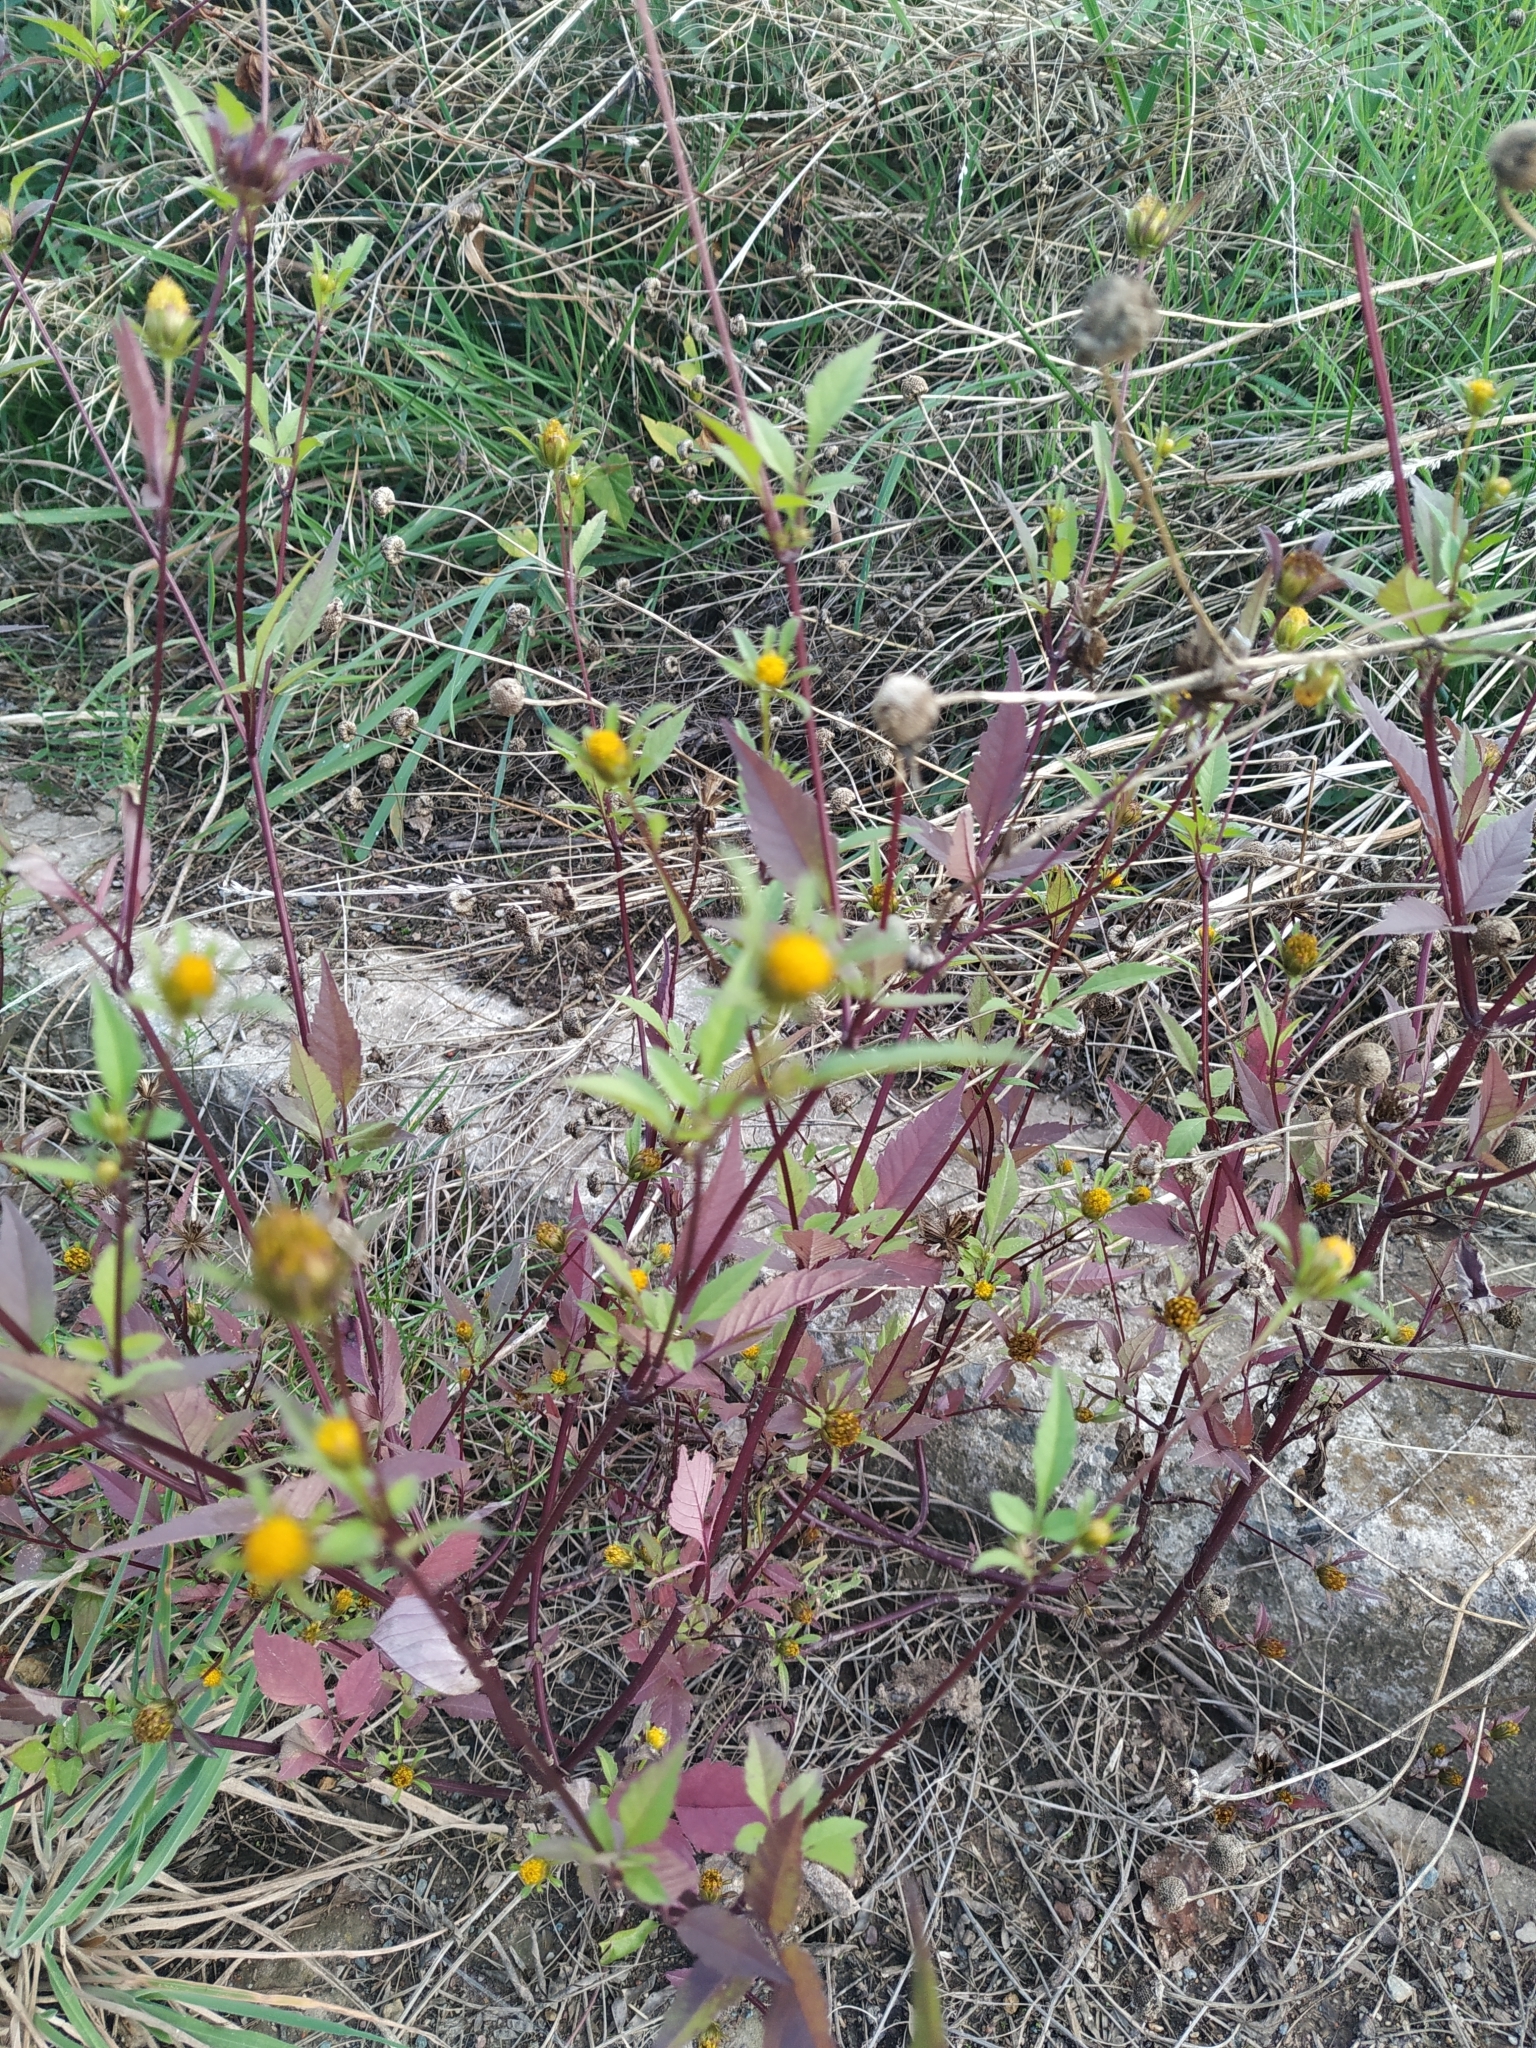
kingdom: Plantae
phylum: Tracheophyta
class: Magnoliopsida
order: Asterales
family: Asteraceae
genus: Bidens
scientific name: Bidens frondosa
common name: Beggarticks
